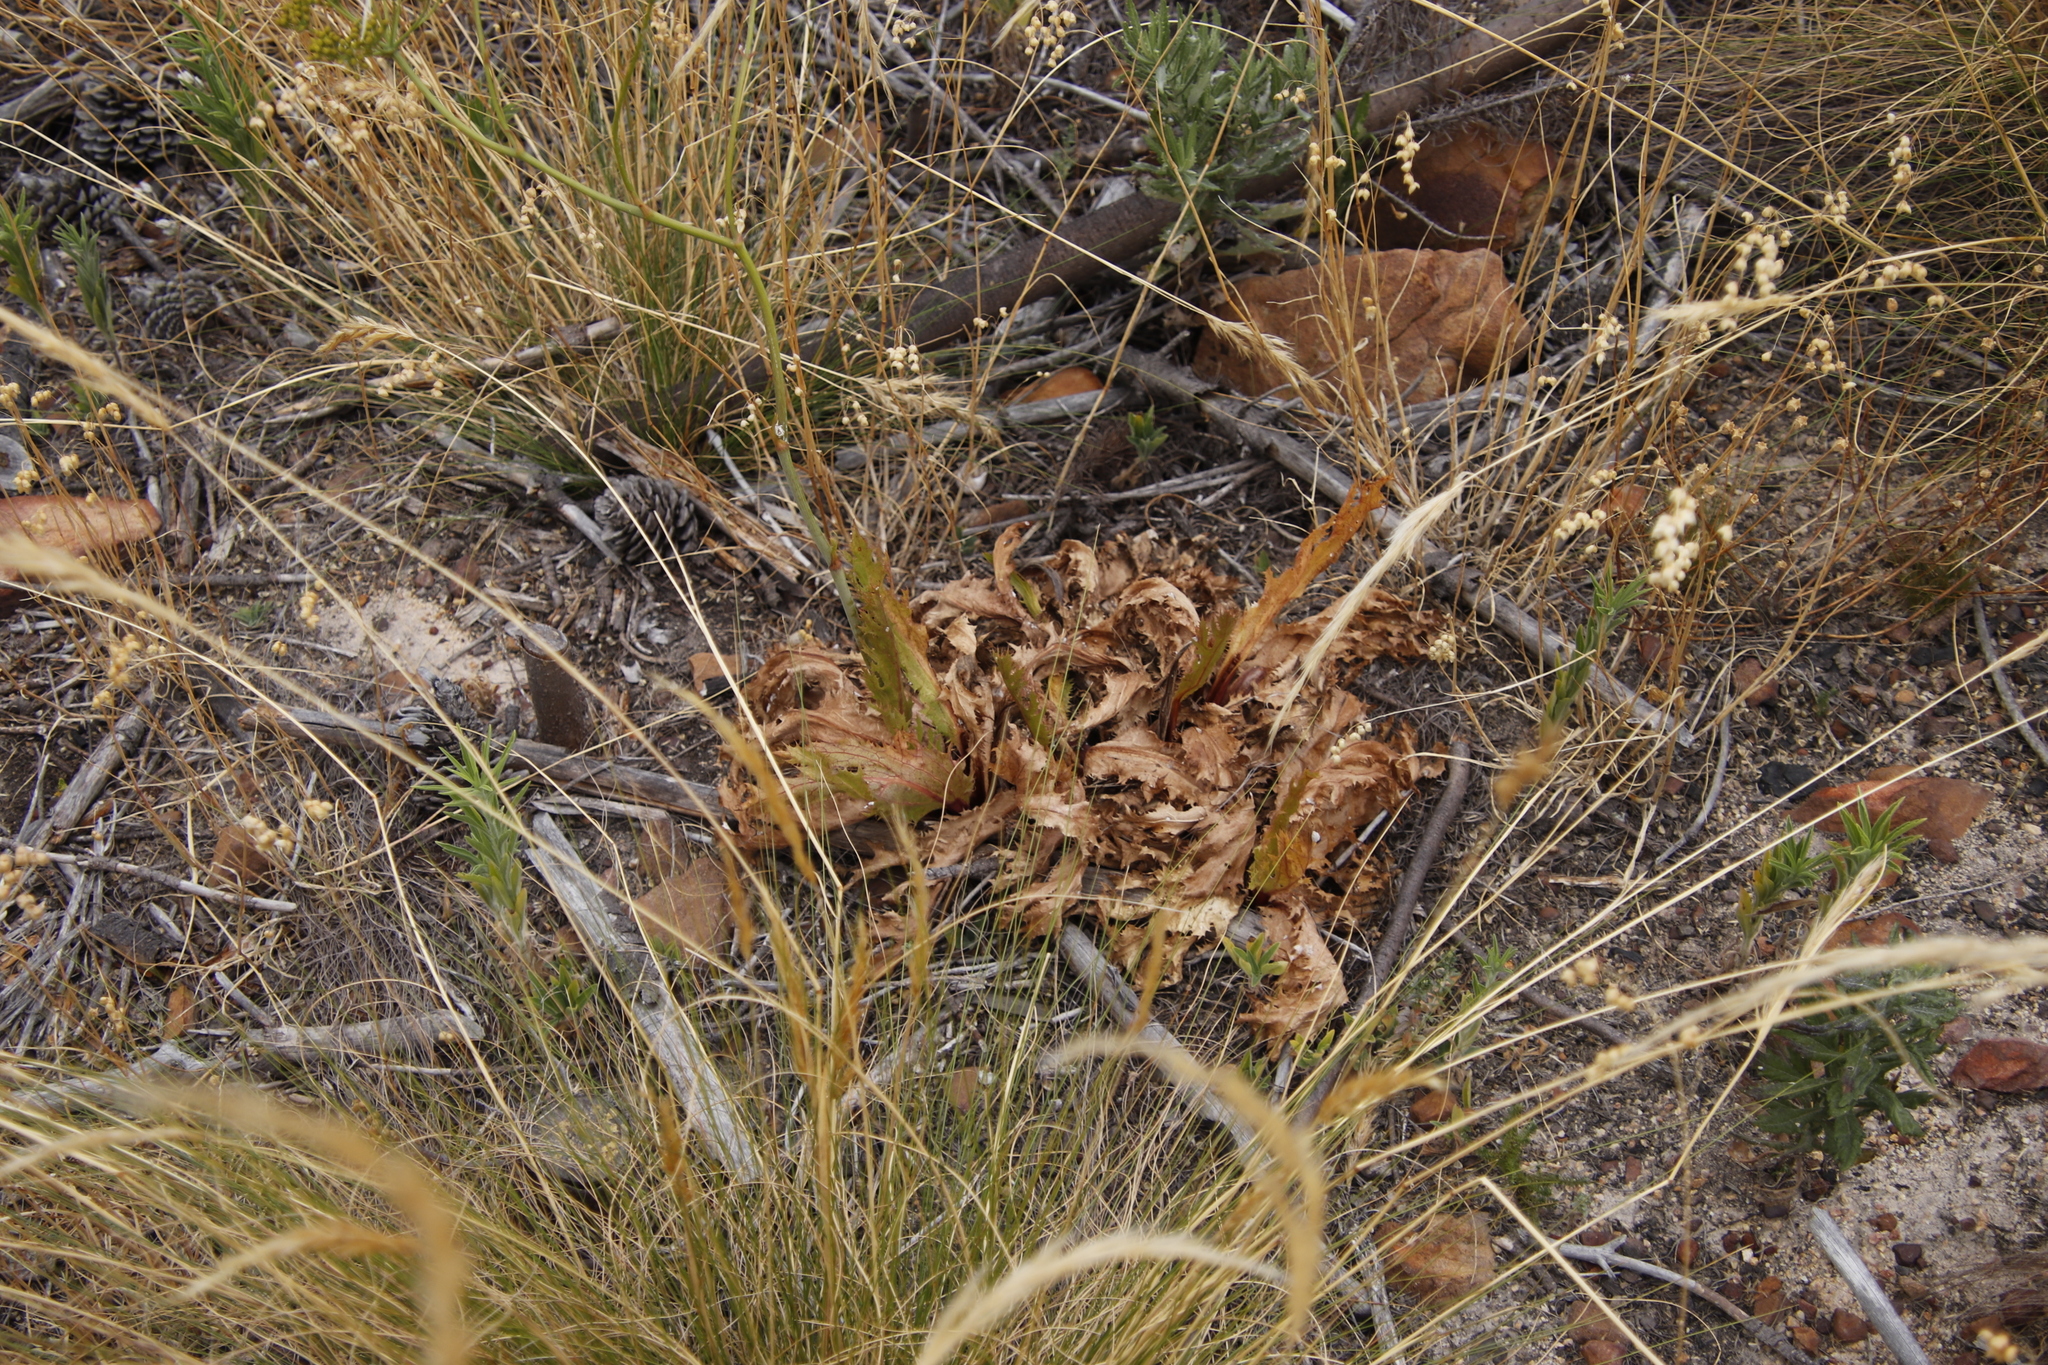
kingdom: Plantae
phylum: Tracheophyta
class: Magnoliopsida
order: Apiales
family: Apiaceae
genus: Lichtensteinia
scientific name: Lichtensteinia lacera
